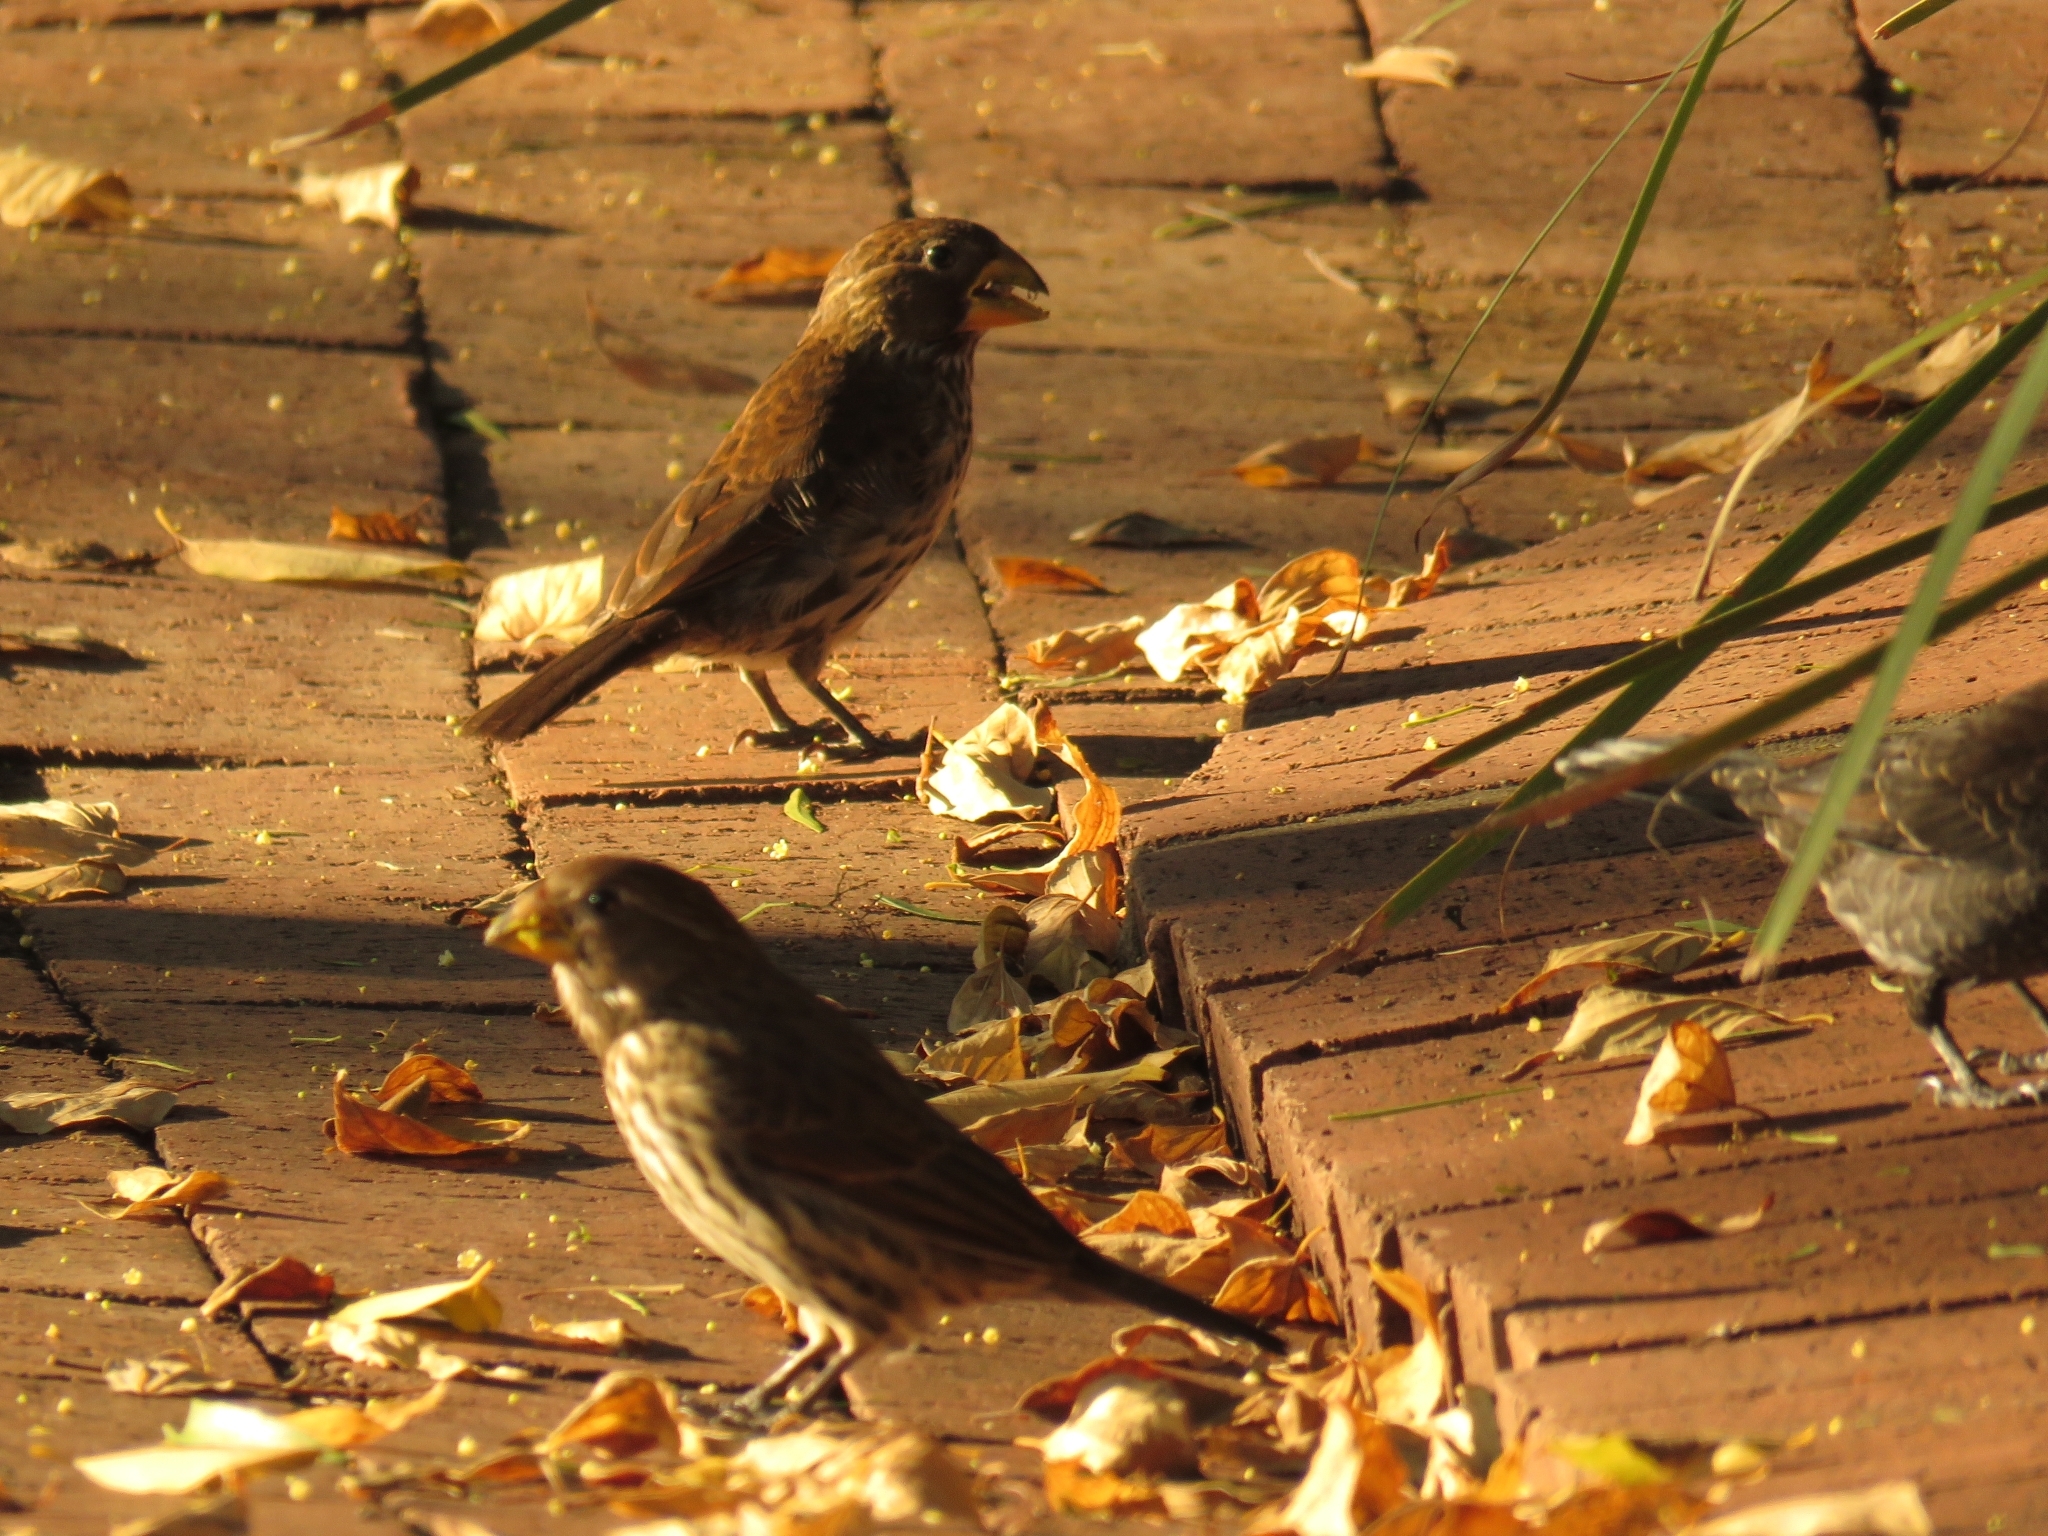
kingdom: Animalia
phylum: Chordata
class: Aves
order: Passeriformes
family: Ploceidae
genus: Amblyospiza
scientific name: Amblyospiza albifrons
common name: Thick-billed weaver
